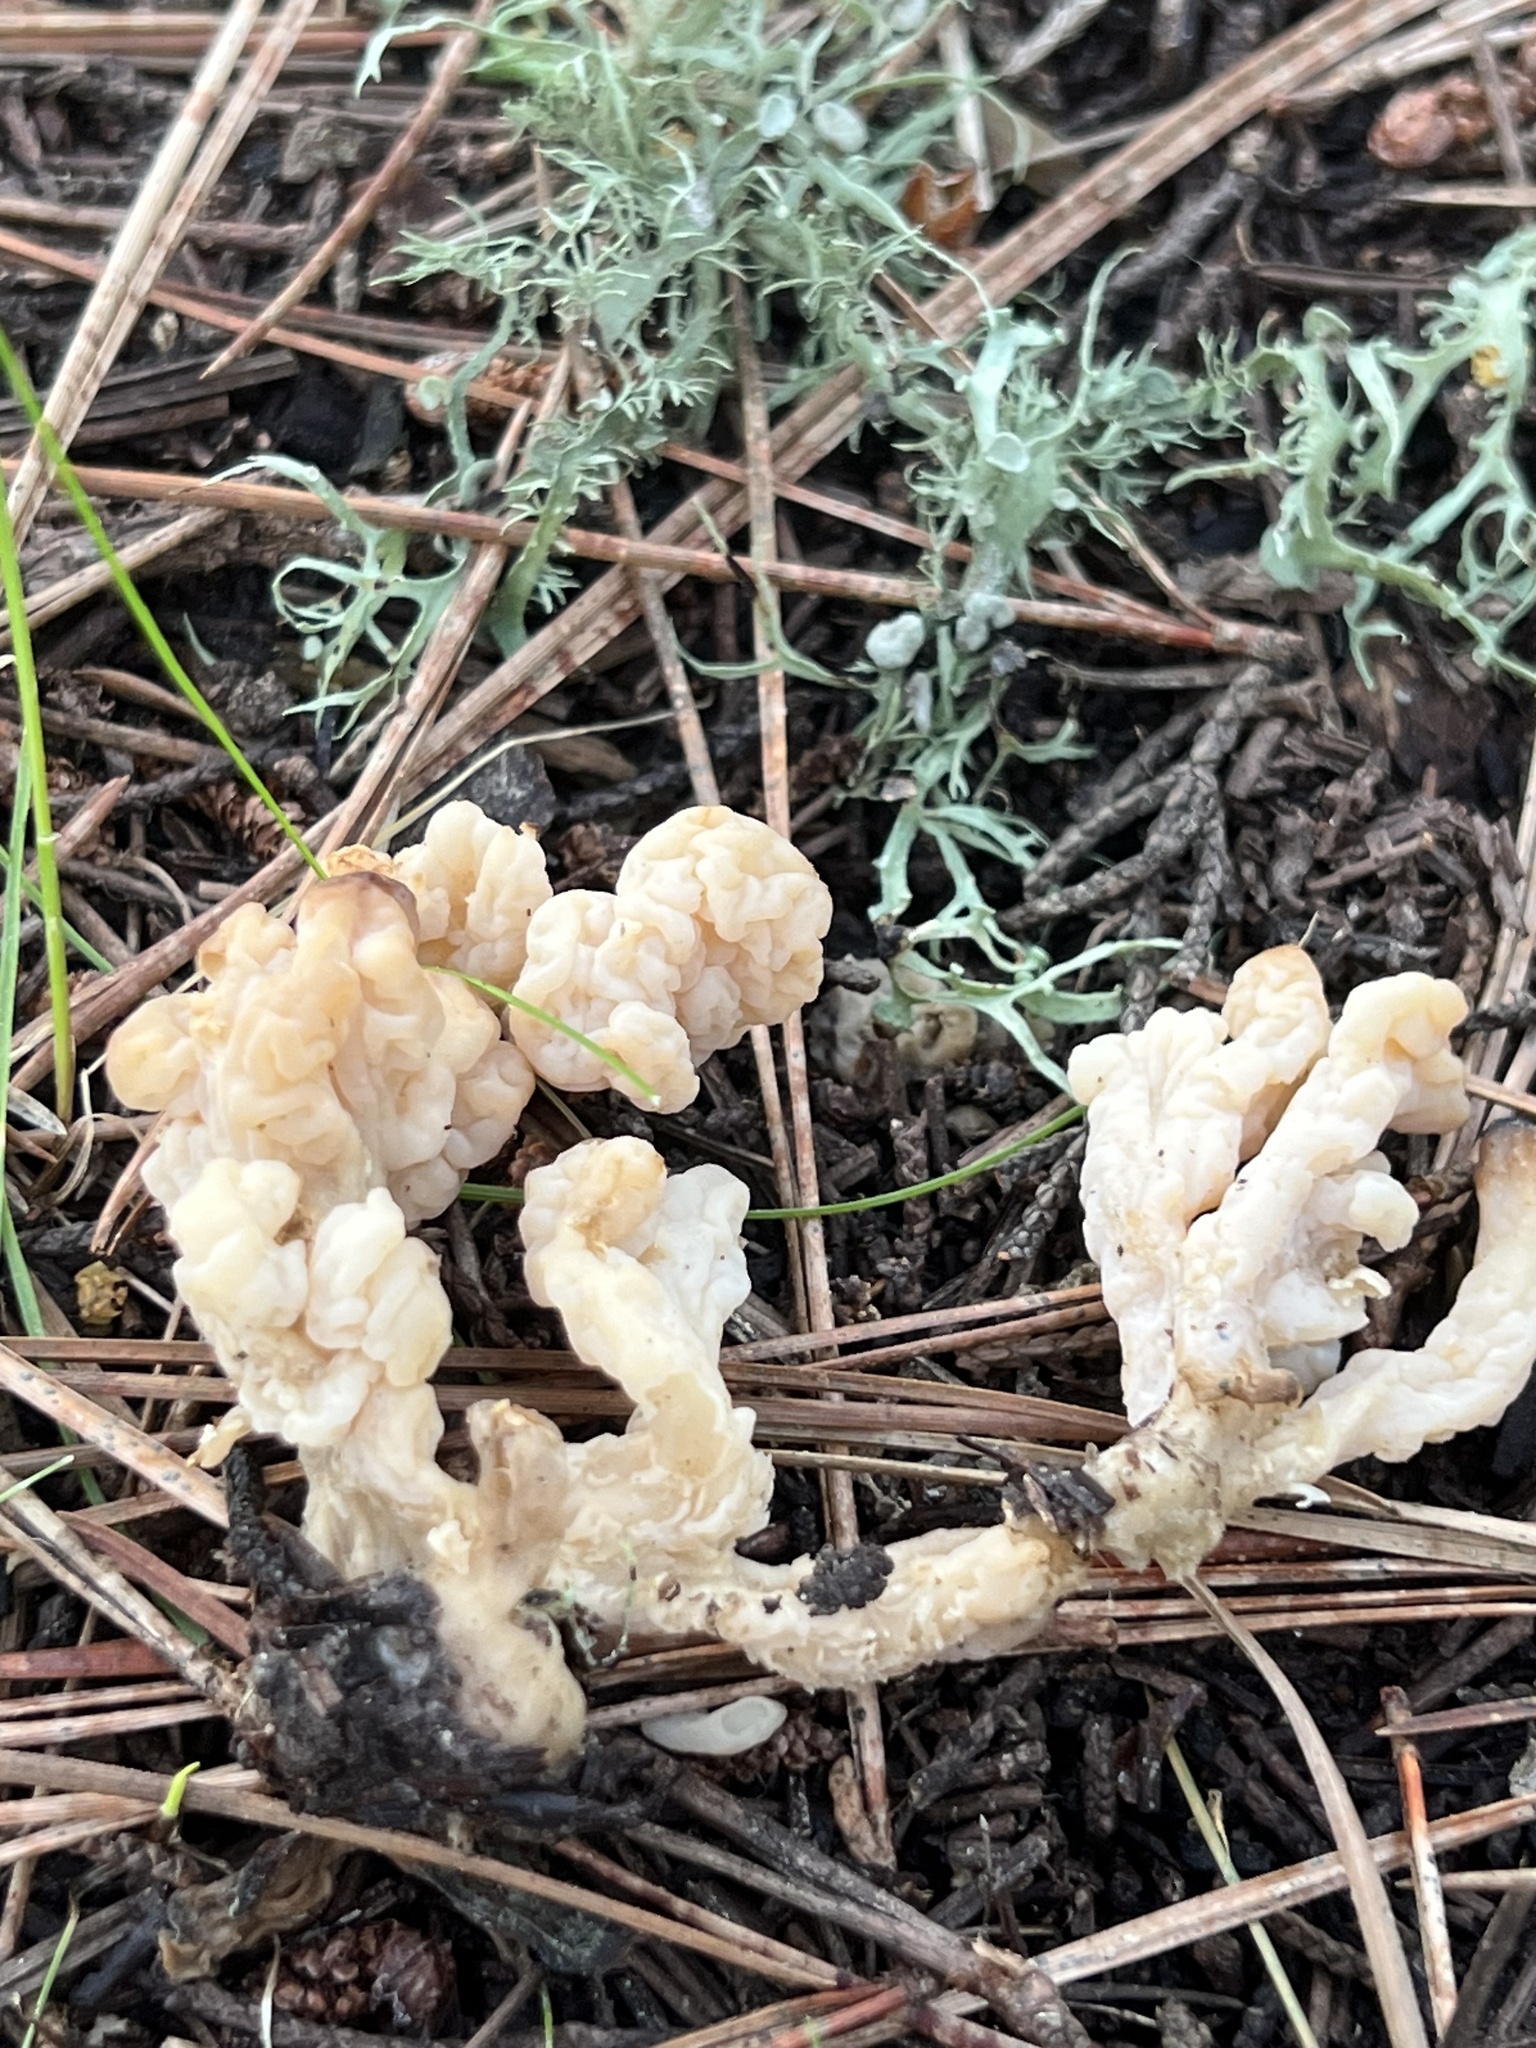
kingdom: Fungi
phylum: Basidiomycota
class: Agaricomycetes
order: Cantharellales
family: Hydnaceae
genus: Clavulina
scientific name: Clavulina rugosa
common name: Wrinkled club
